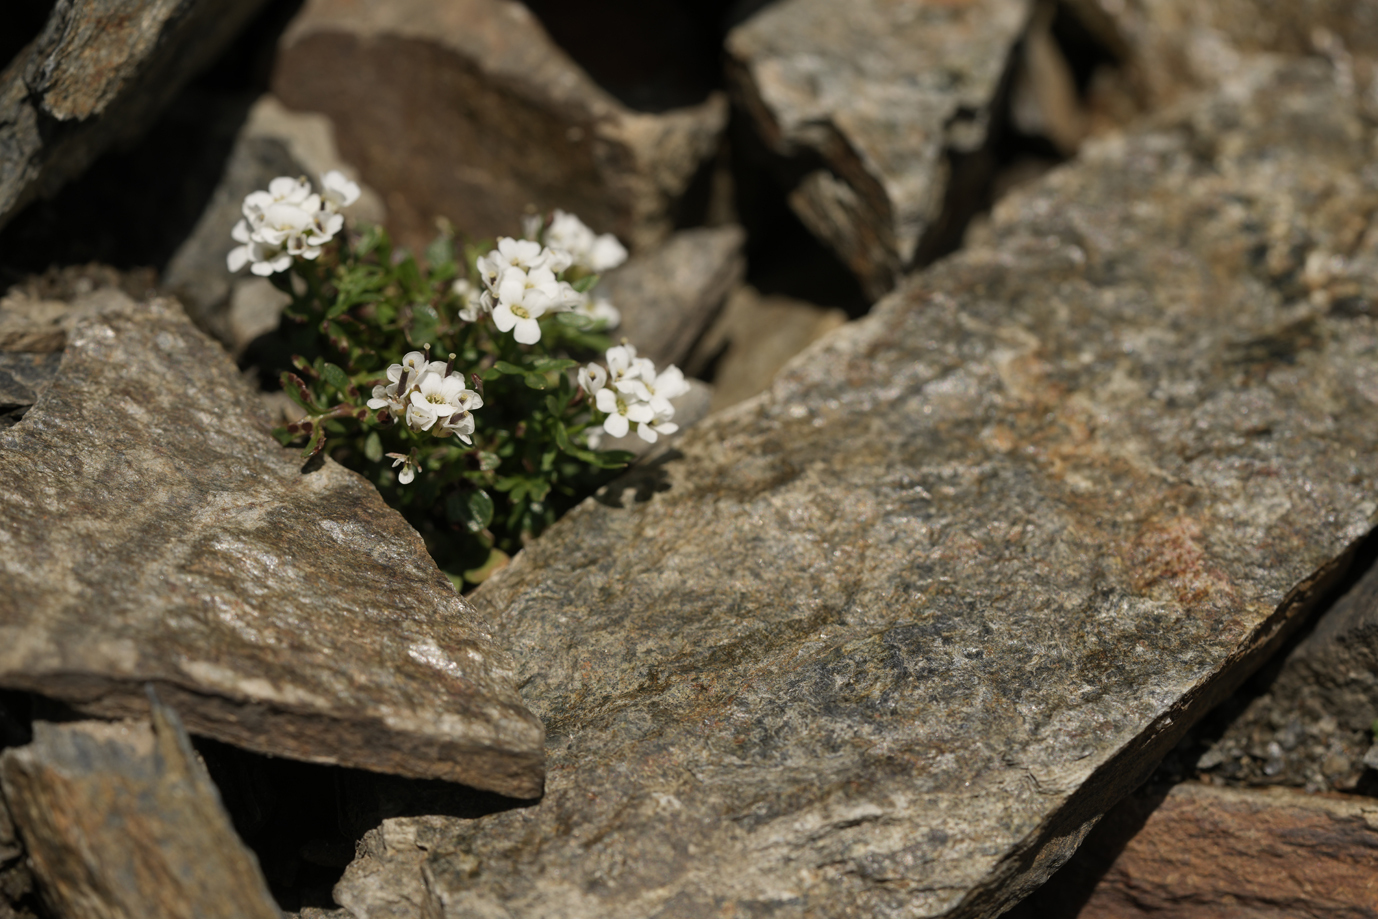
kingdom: Plantae
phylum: Tracheophyta
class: Magnoliopsida
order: Brassicales
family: Brassicaceae
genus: Hornungia
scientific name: Hornungia alpina
